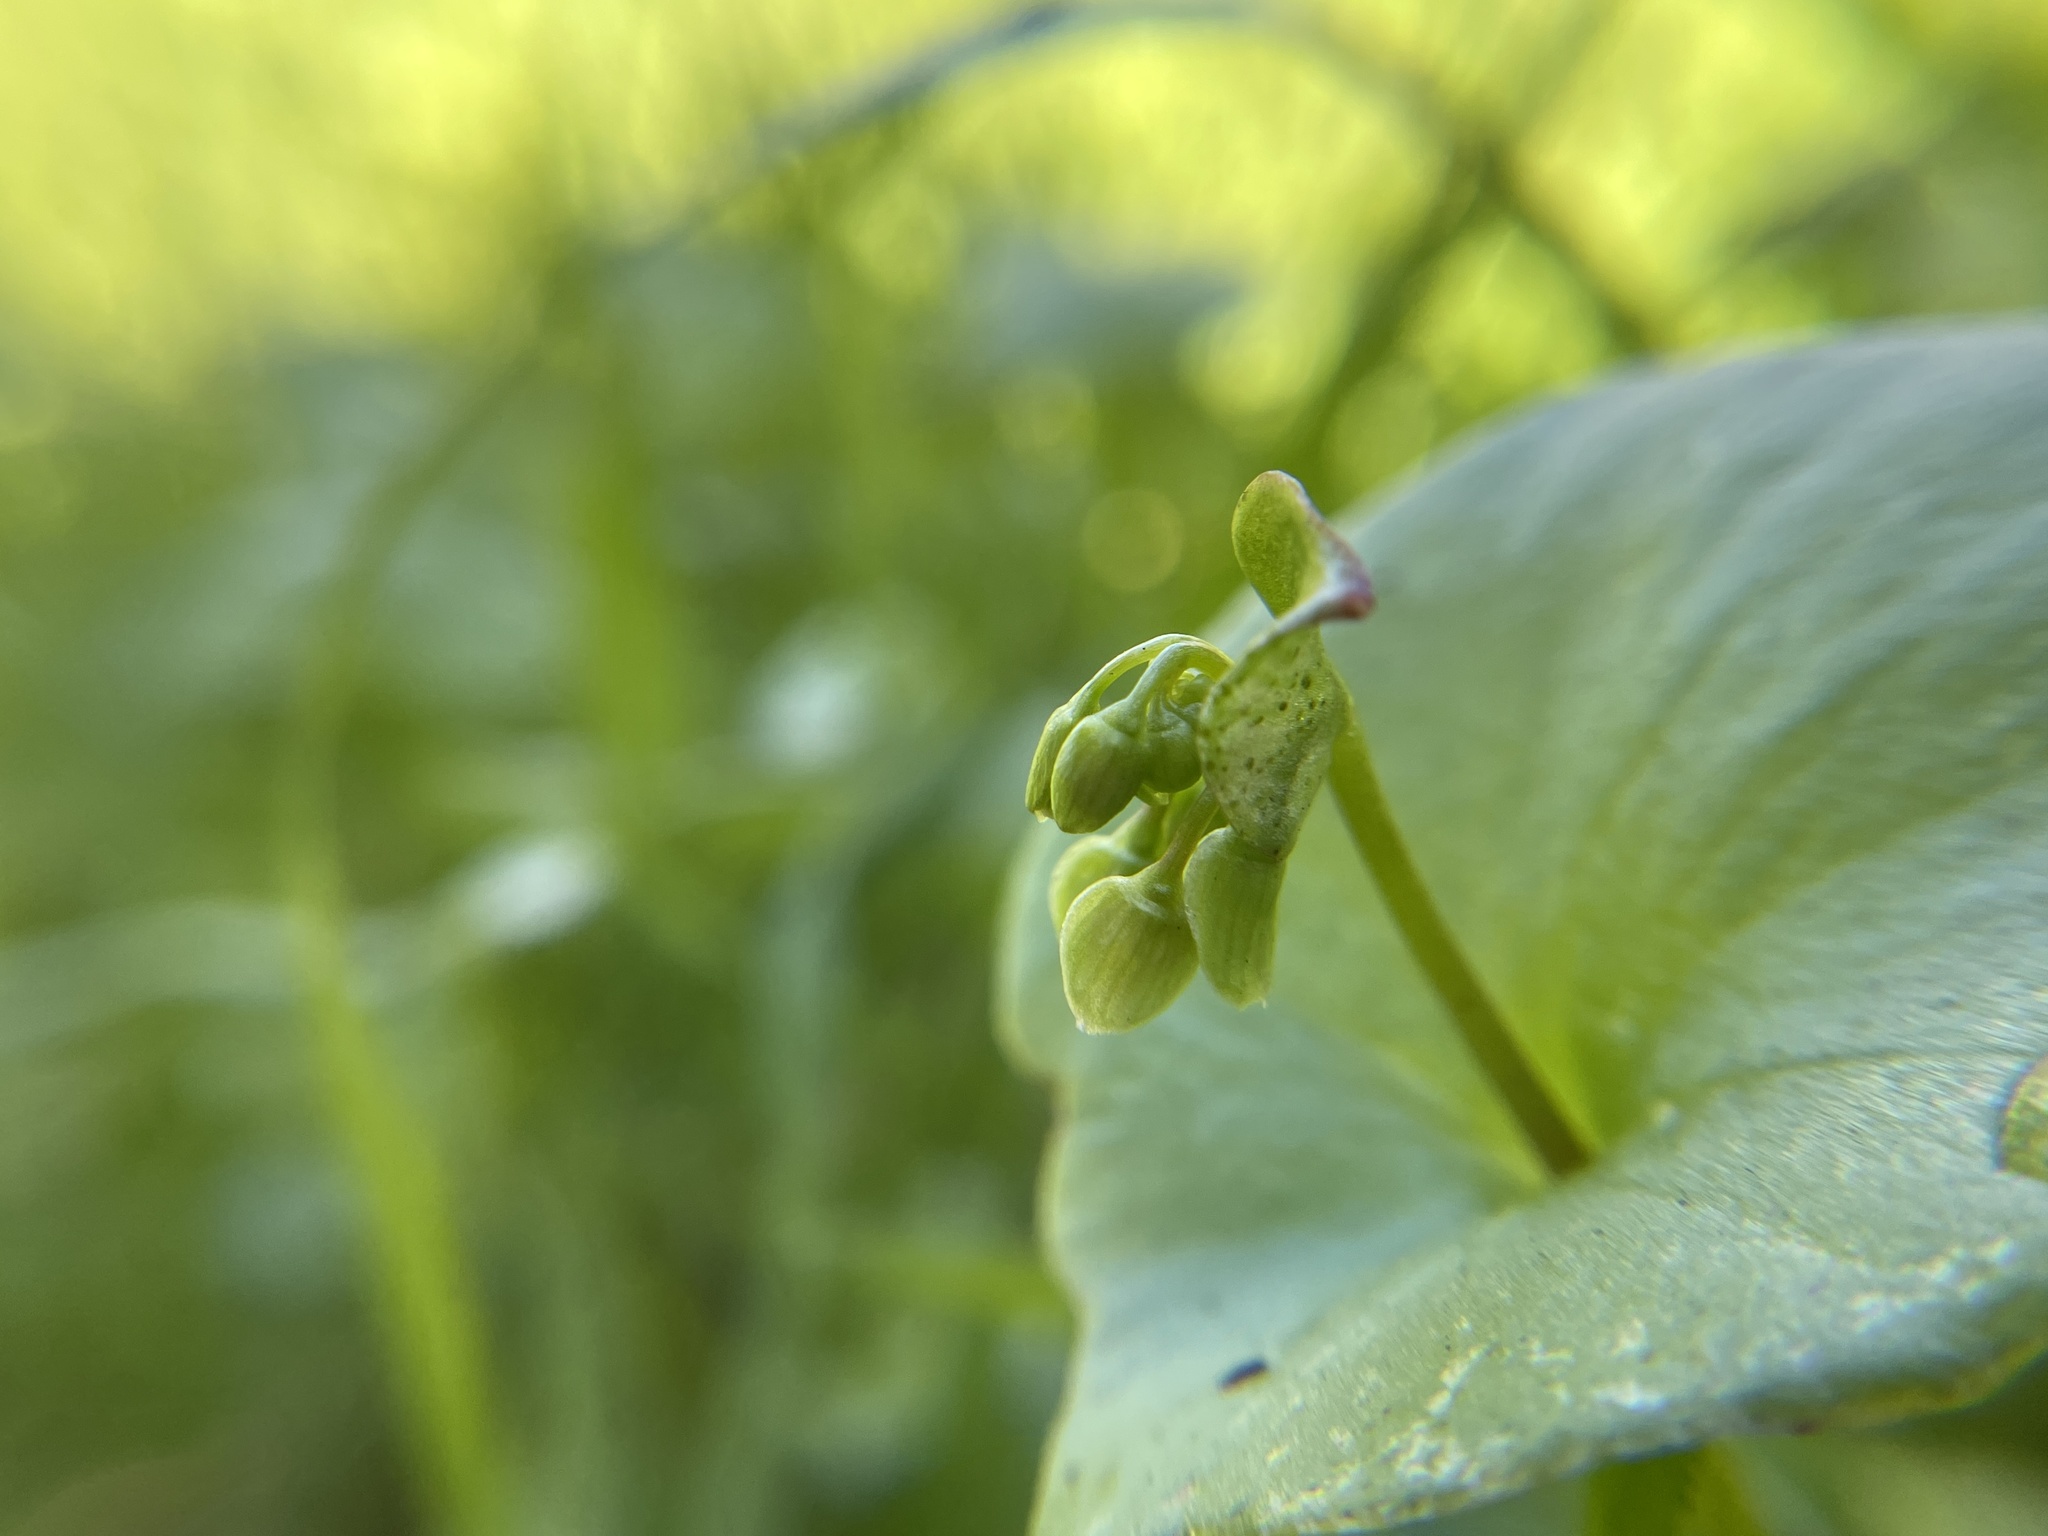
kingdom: Plantae
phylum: Tracheophyta
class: Magnoliopsida
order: Caryophyllales
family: Montiaceae
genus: Claytonia
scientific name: Claytonia perfoliata
